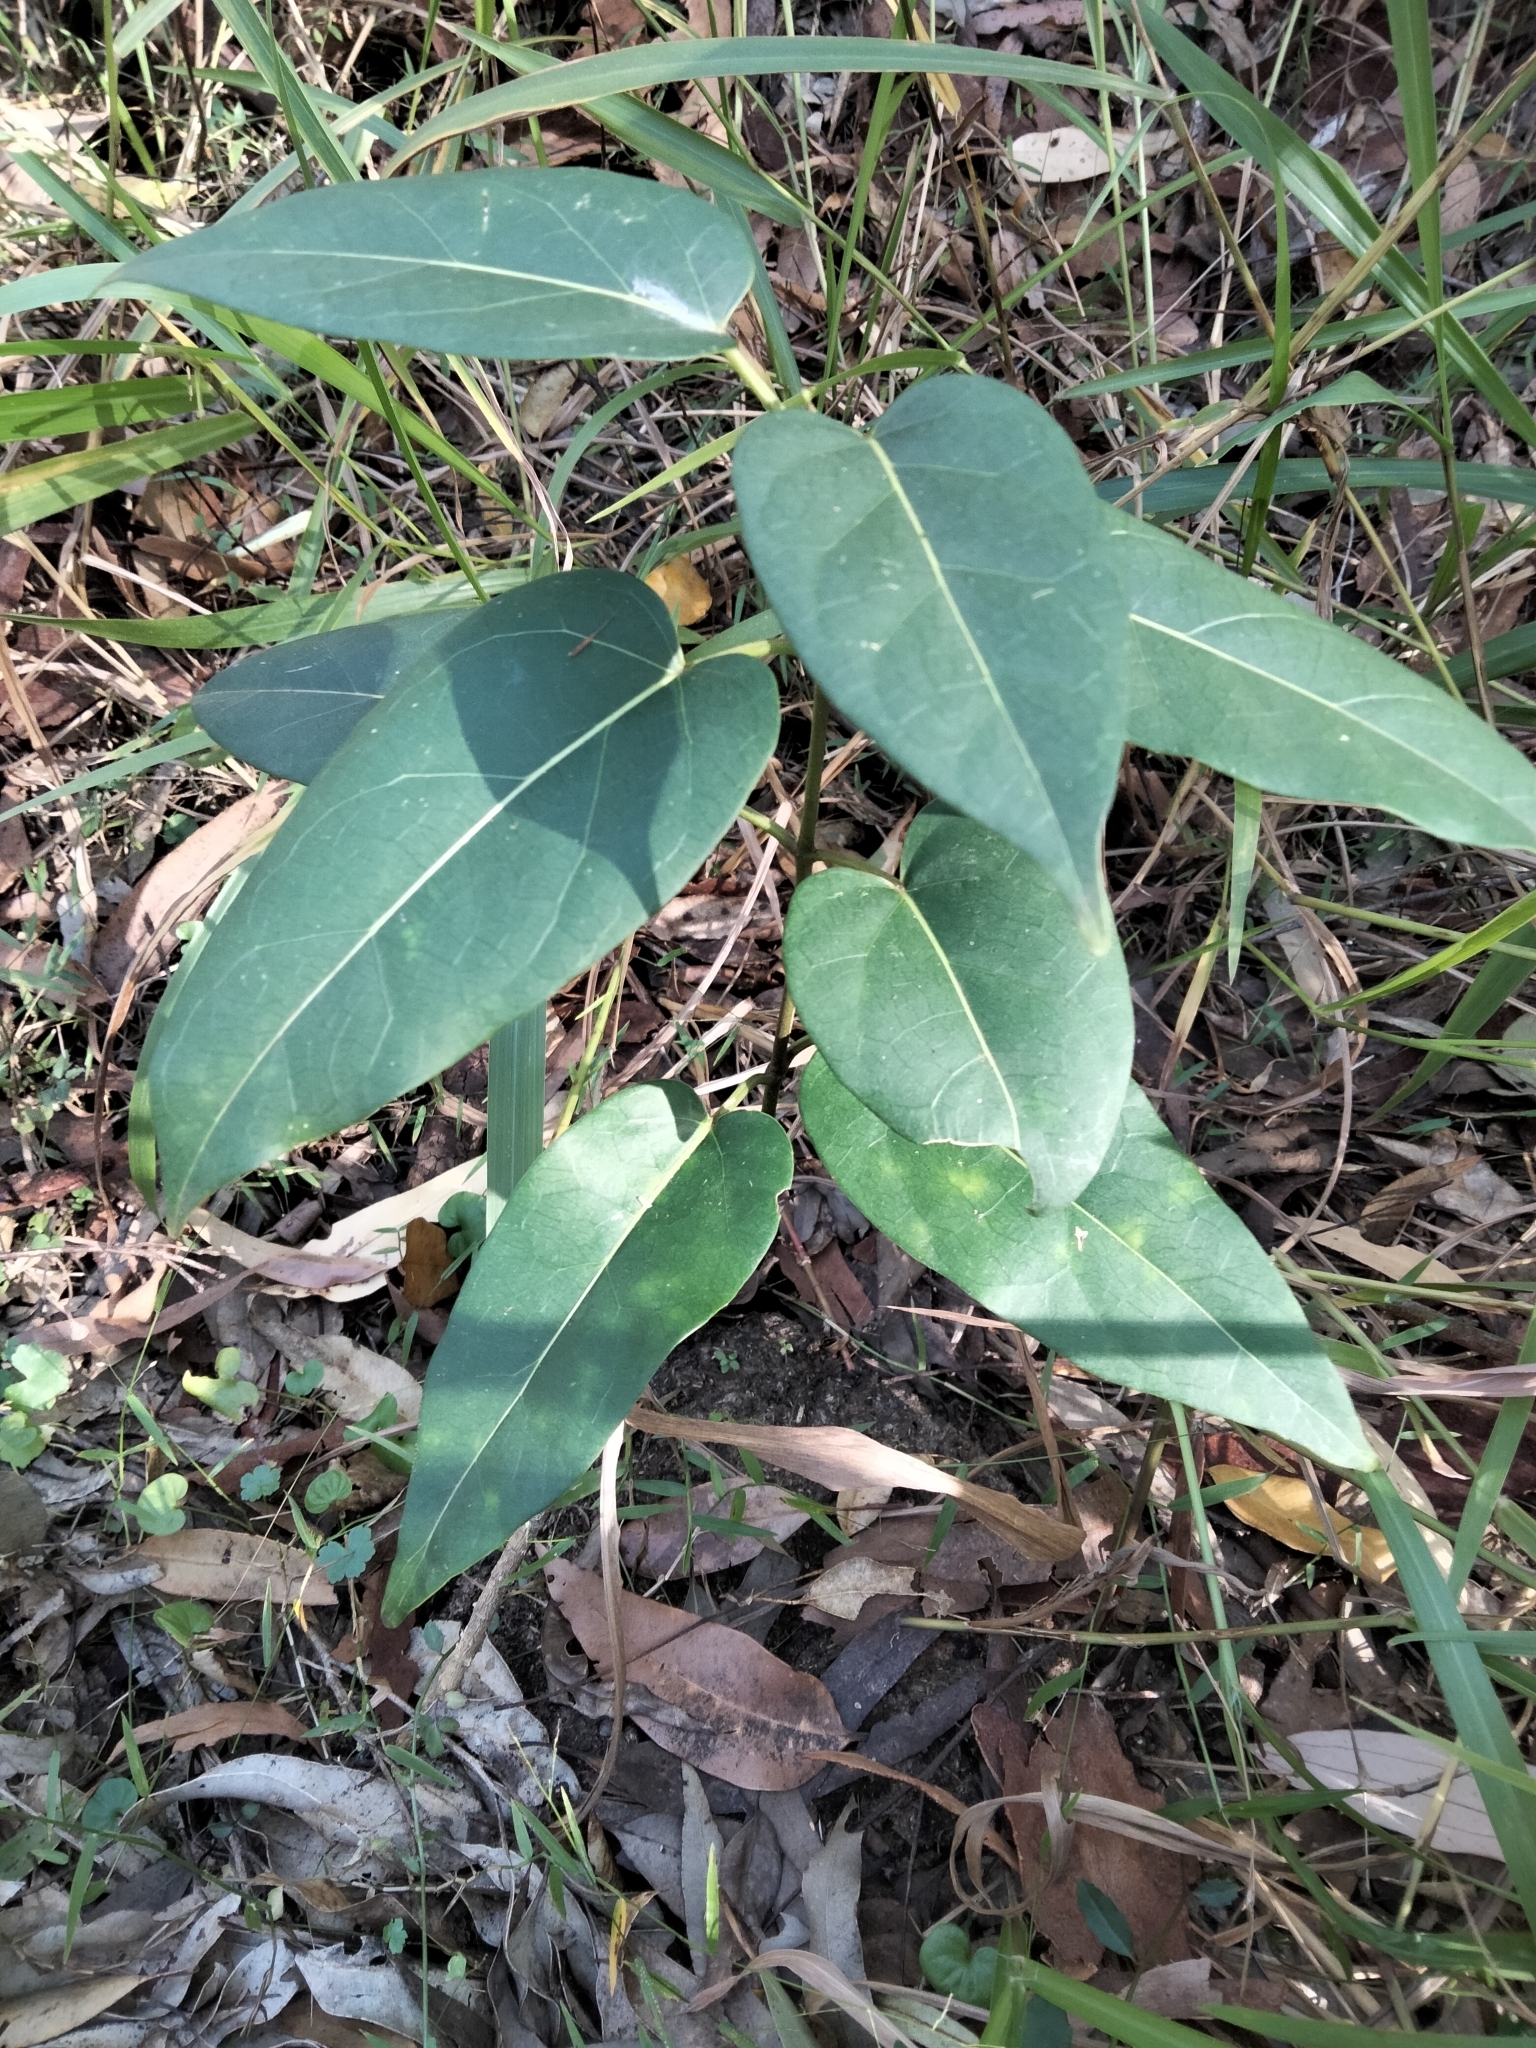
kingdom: Plantae
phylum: Tracheophyta
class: Magnoliopsida
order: Gentianales
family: Apocynaceae
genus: Leichhardtia
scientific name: Leichhardtia rostrata
